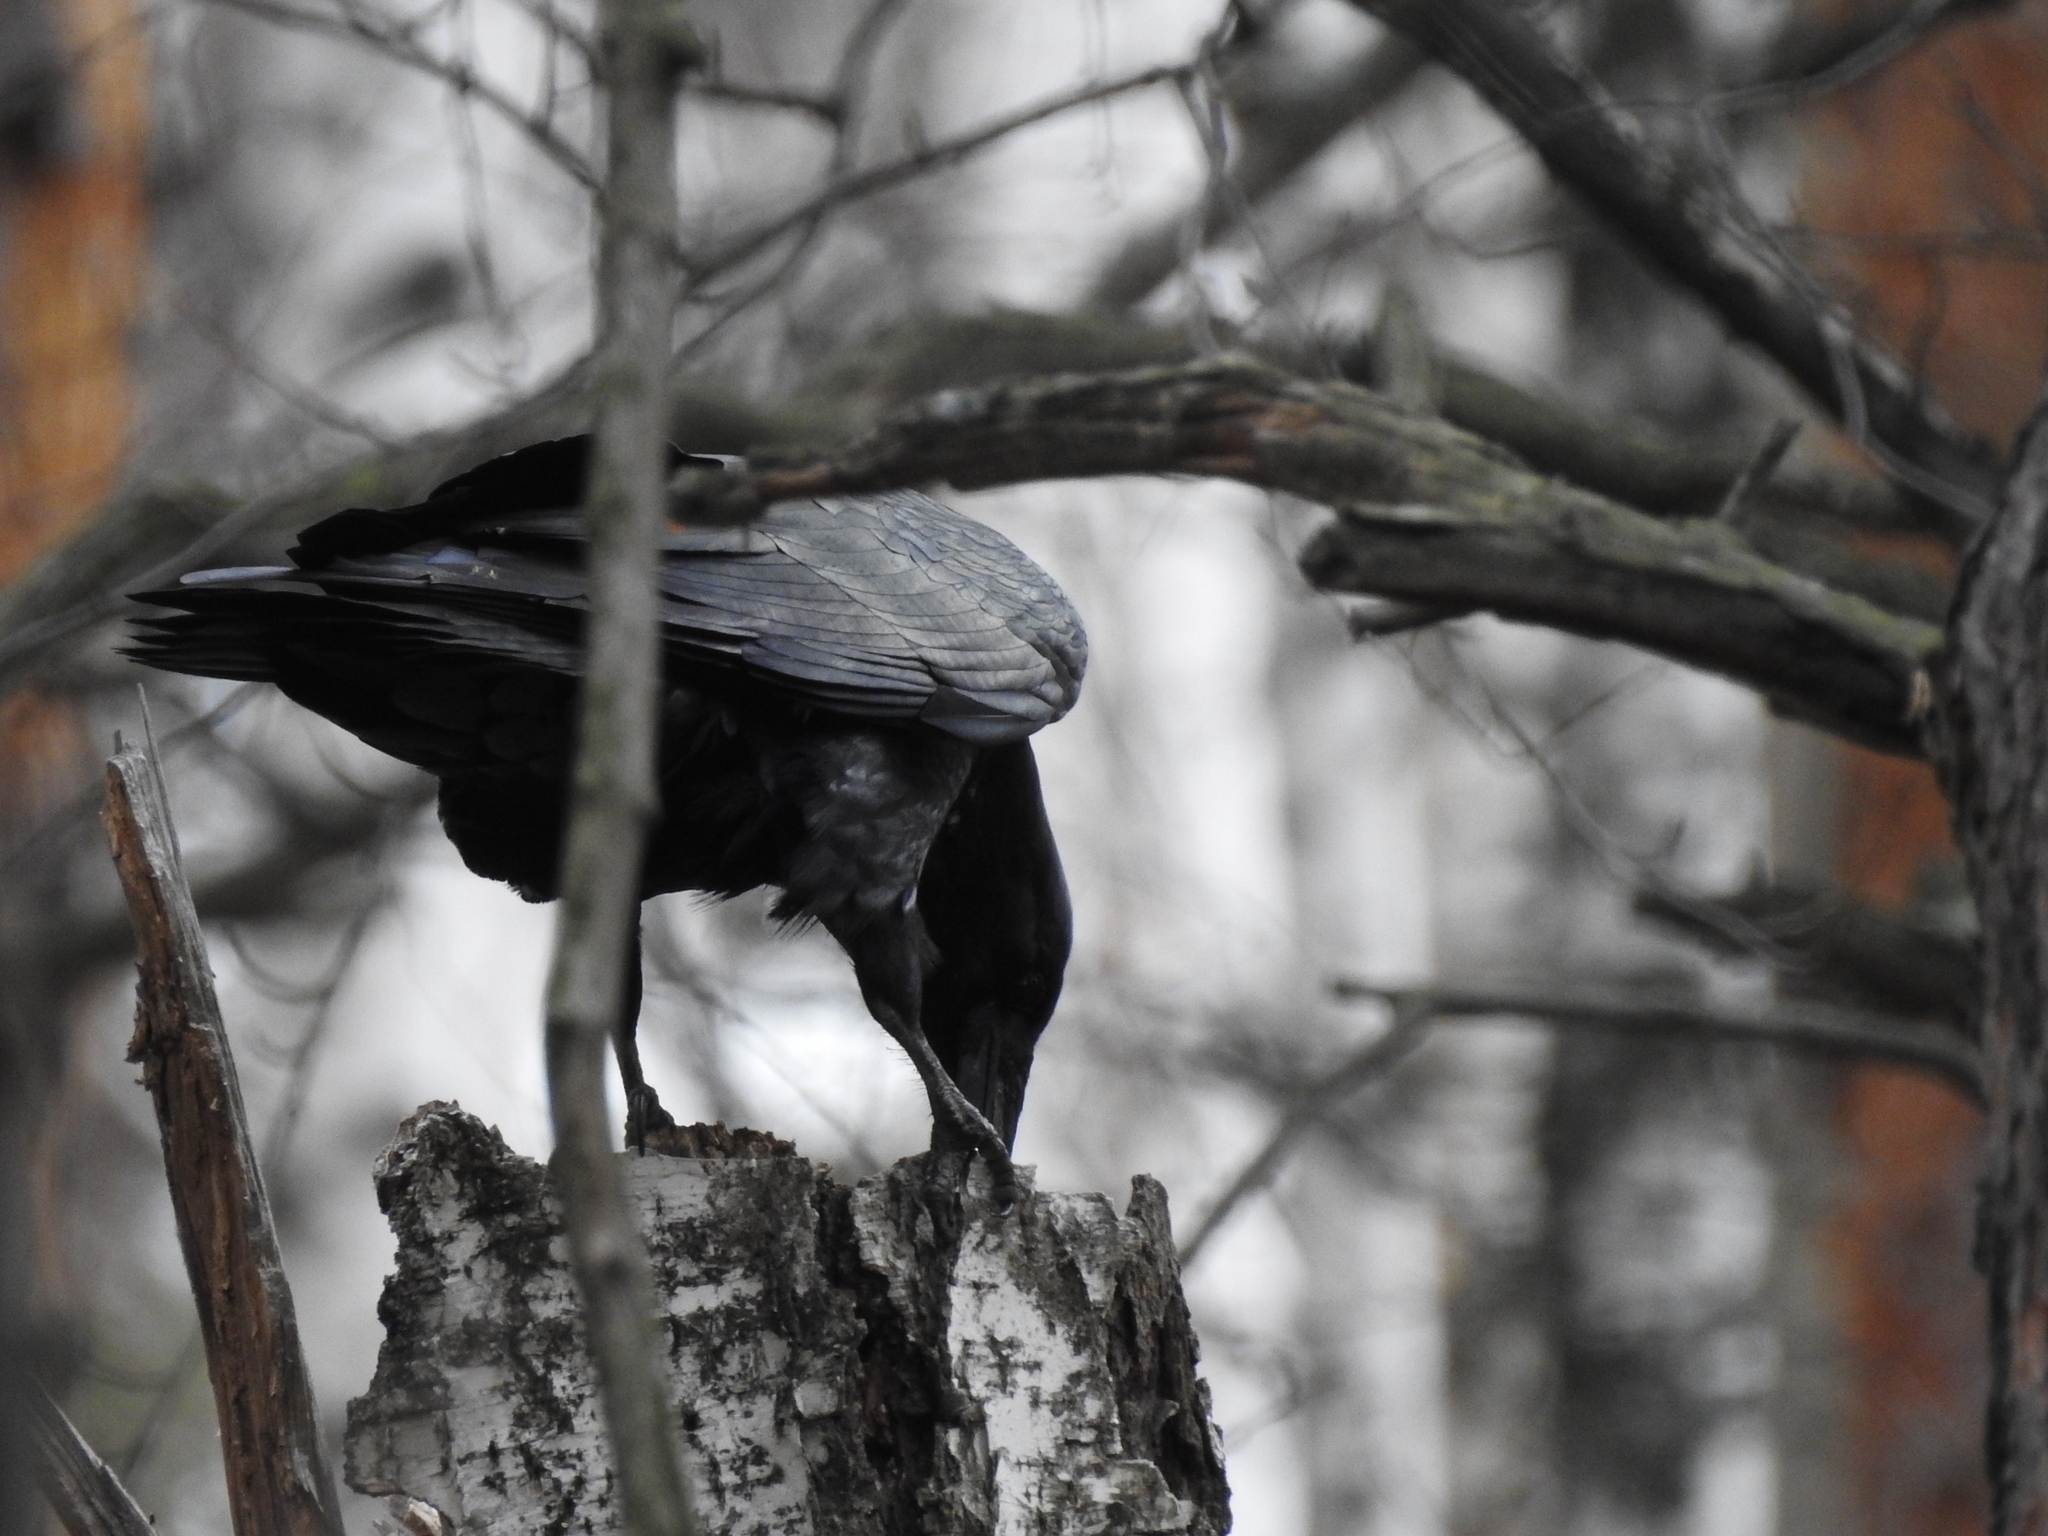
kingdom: Animalia
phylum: Chordata
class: Aves
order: Passeriformes
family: Corvidae
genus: Corvus
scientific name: Corvus corax
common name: Common raven
